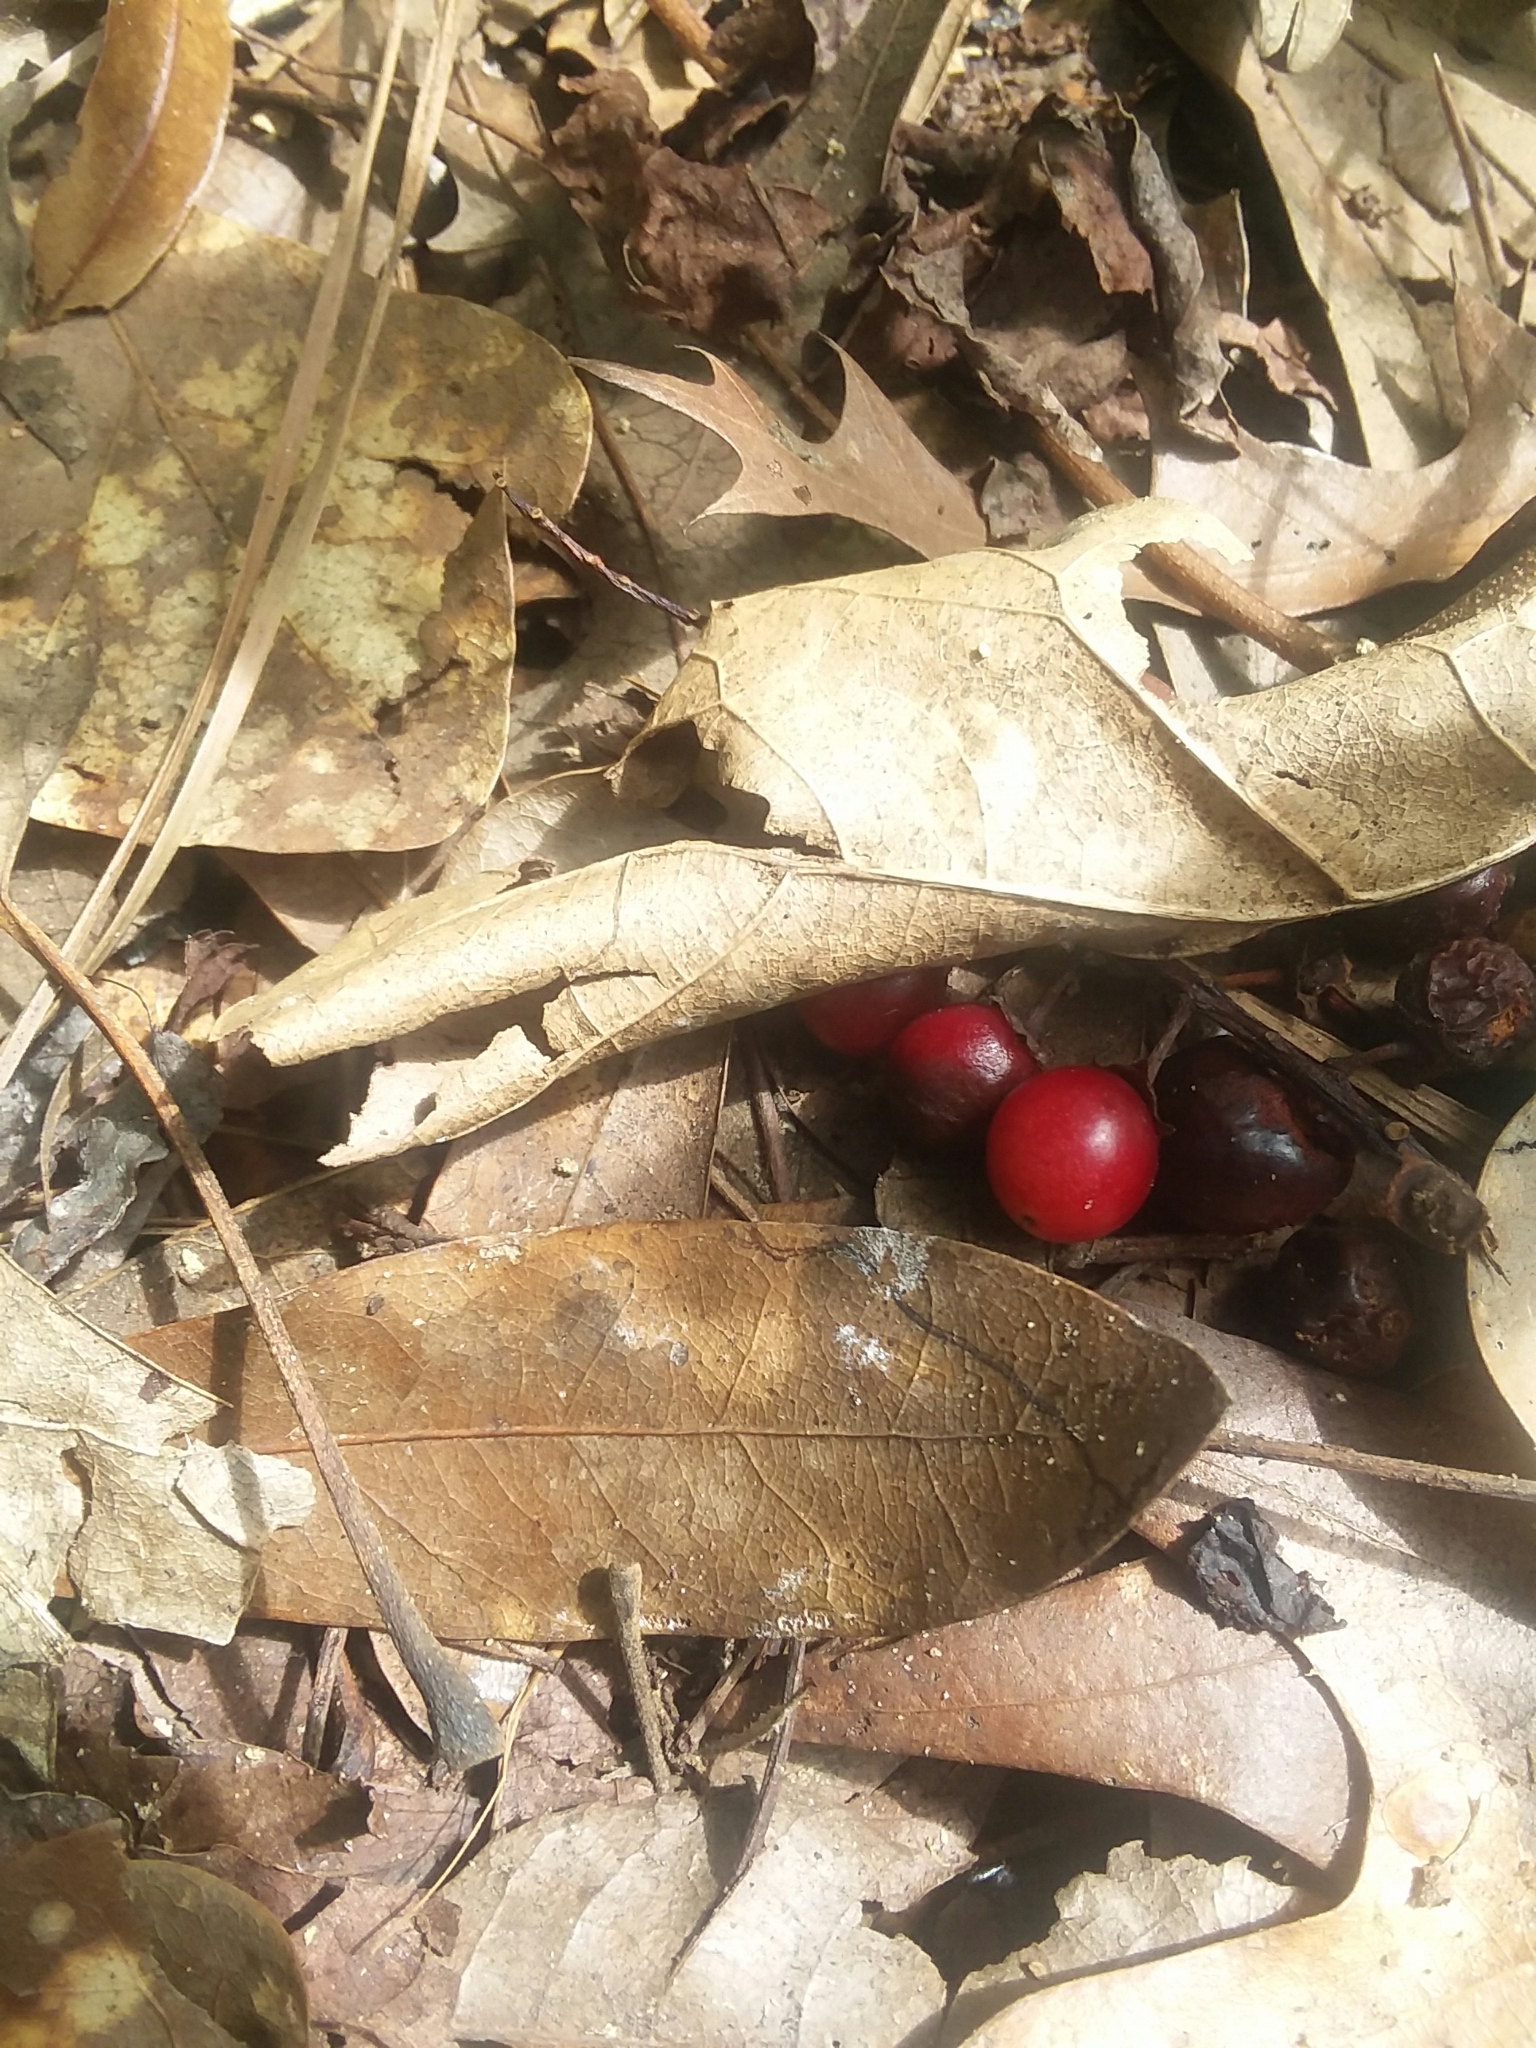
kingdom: Plantae
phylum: Tracheophyta
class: Magnoliopsida
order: Rosales
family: Rosaceae
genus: Prunus
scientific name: Prunus serotina
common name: Black cherry
